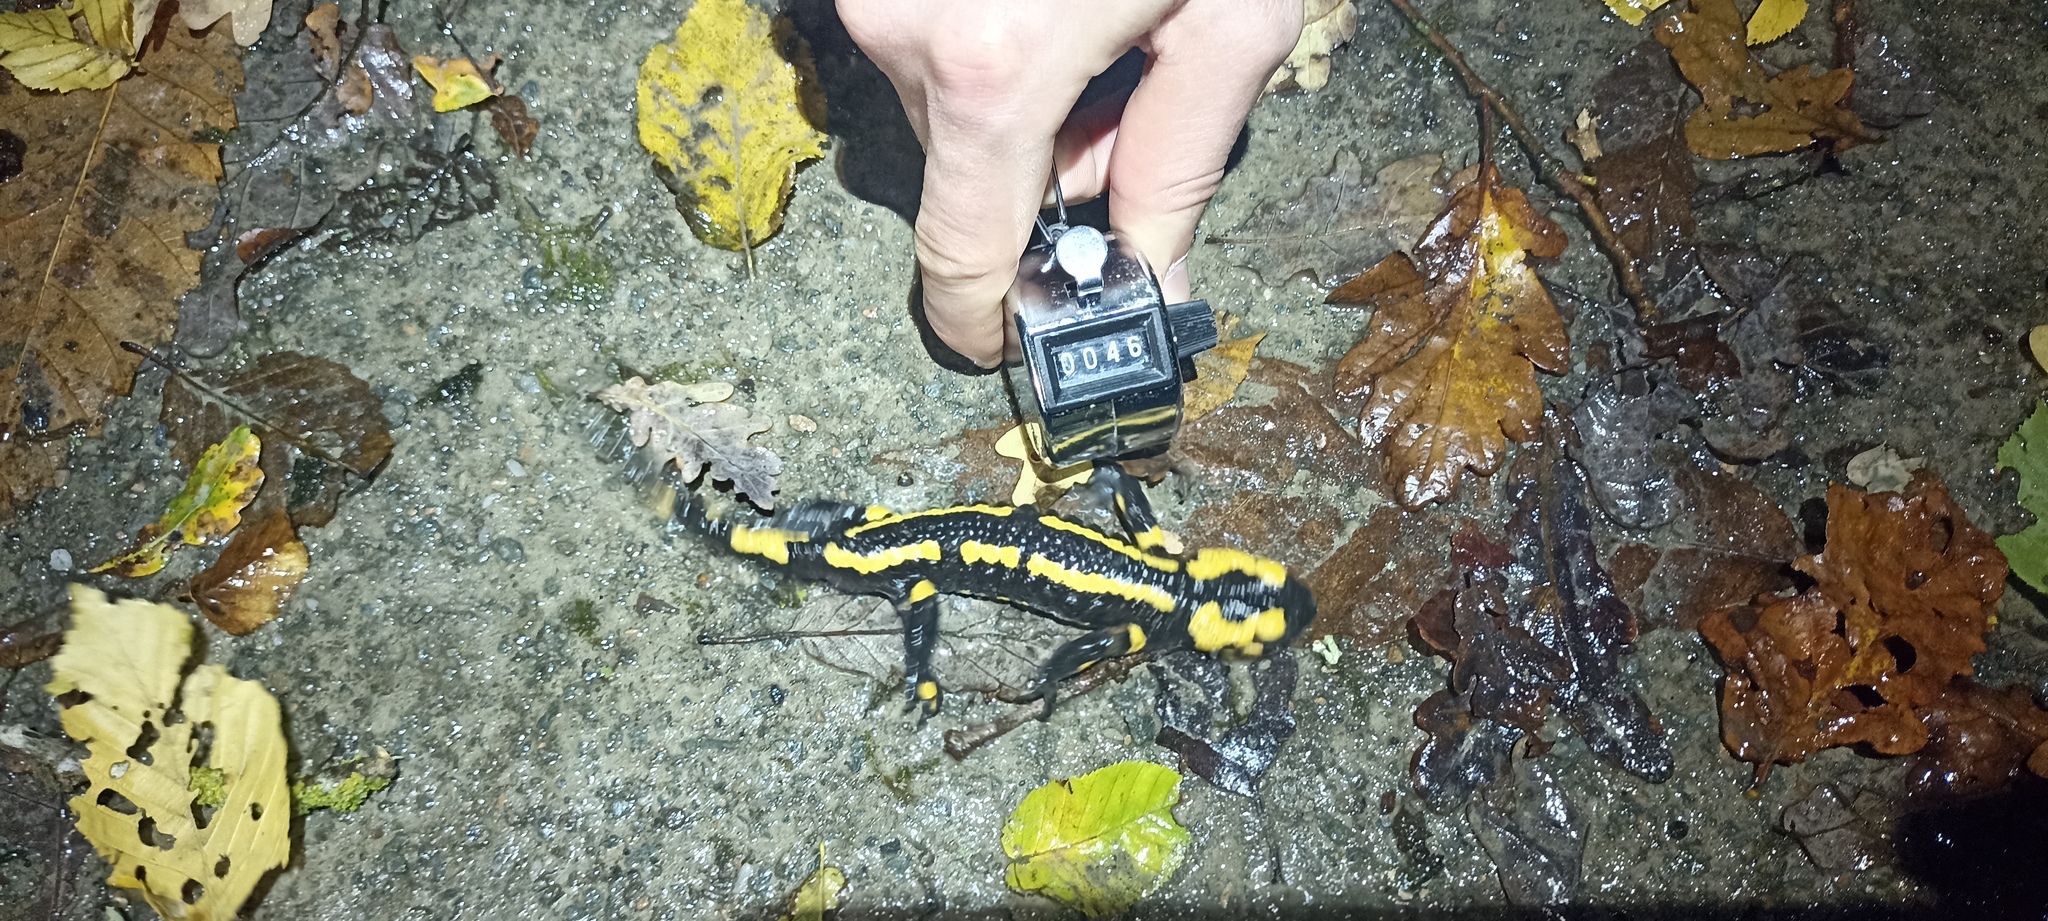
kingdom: Animalia
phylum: Chordata
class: Amphibia
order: Caudata
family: Salamandridae
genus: Salamandra
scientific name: Salamandra salamandra
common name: Fire salamander
